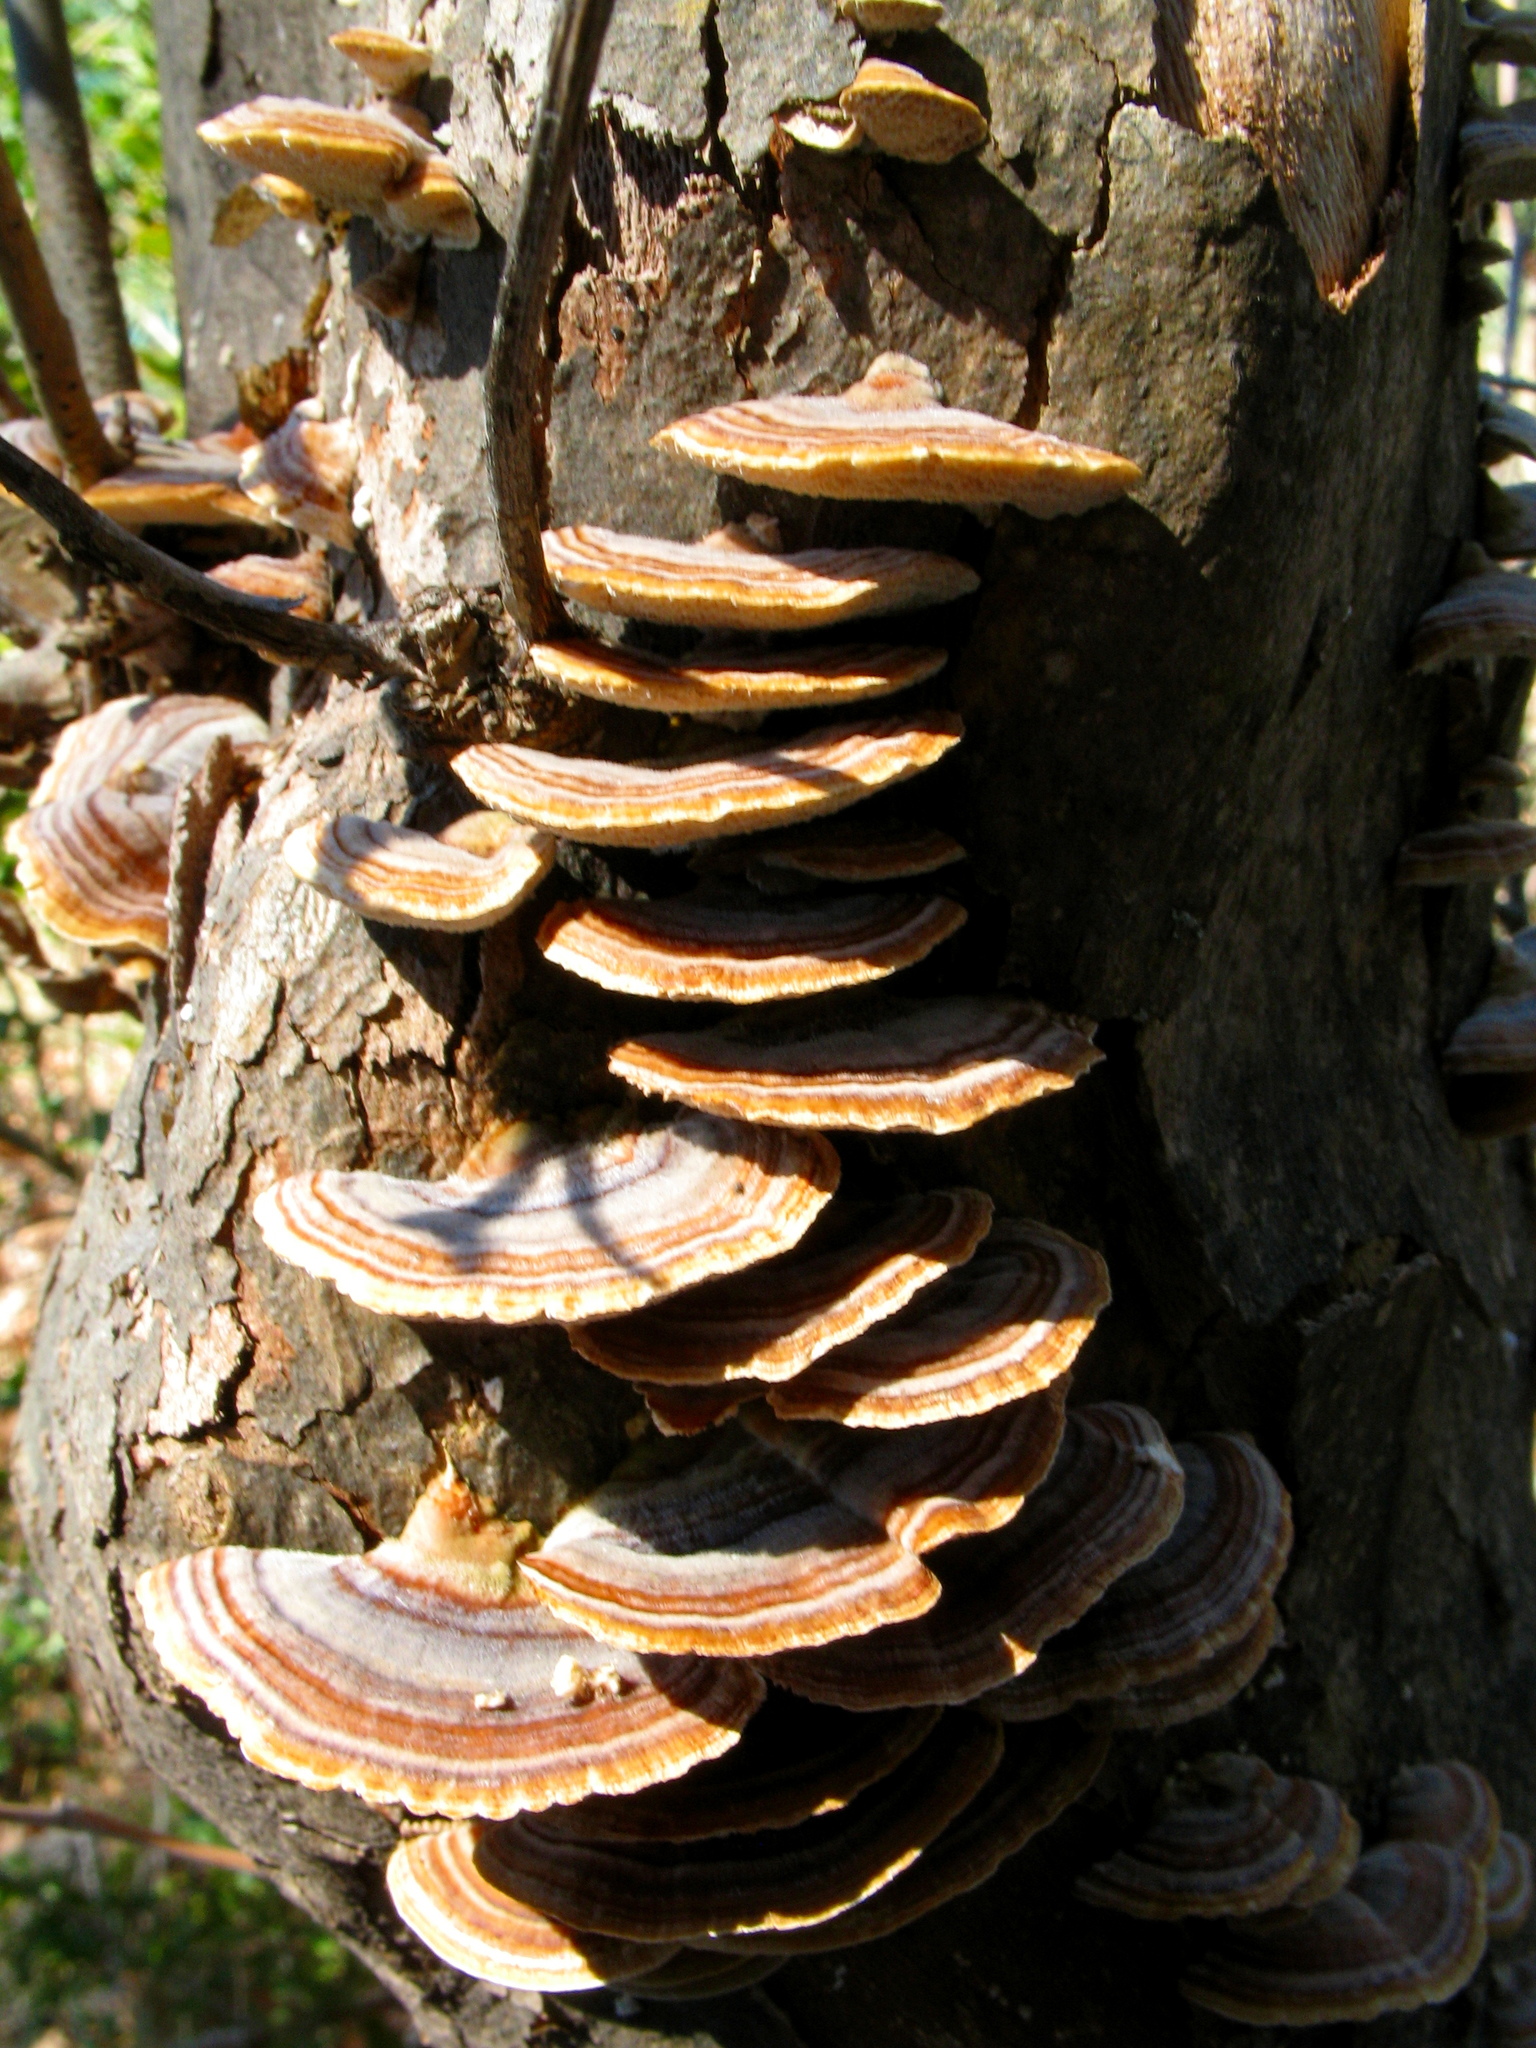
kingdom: Fungi
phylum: Basidiomycota
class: Agaricomycetes
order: Polyporales
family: Polyporaceae
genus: Trametes
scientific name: Trametes versicolor
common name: Turkeytail
